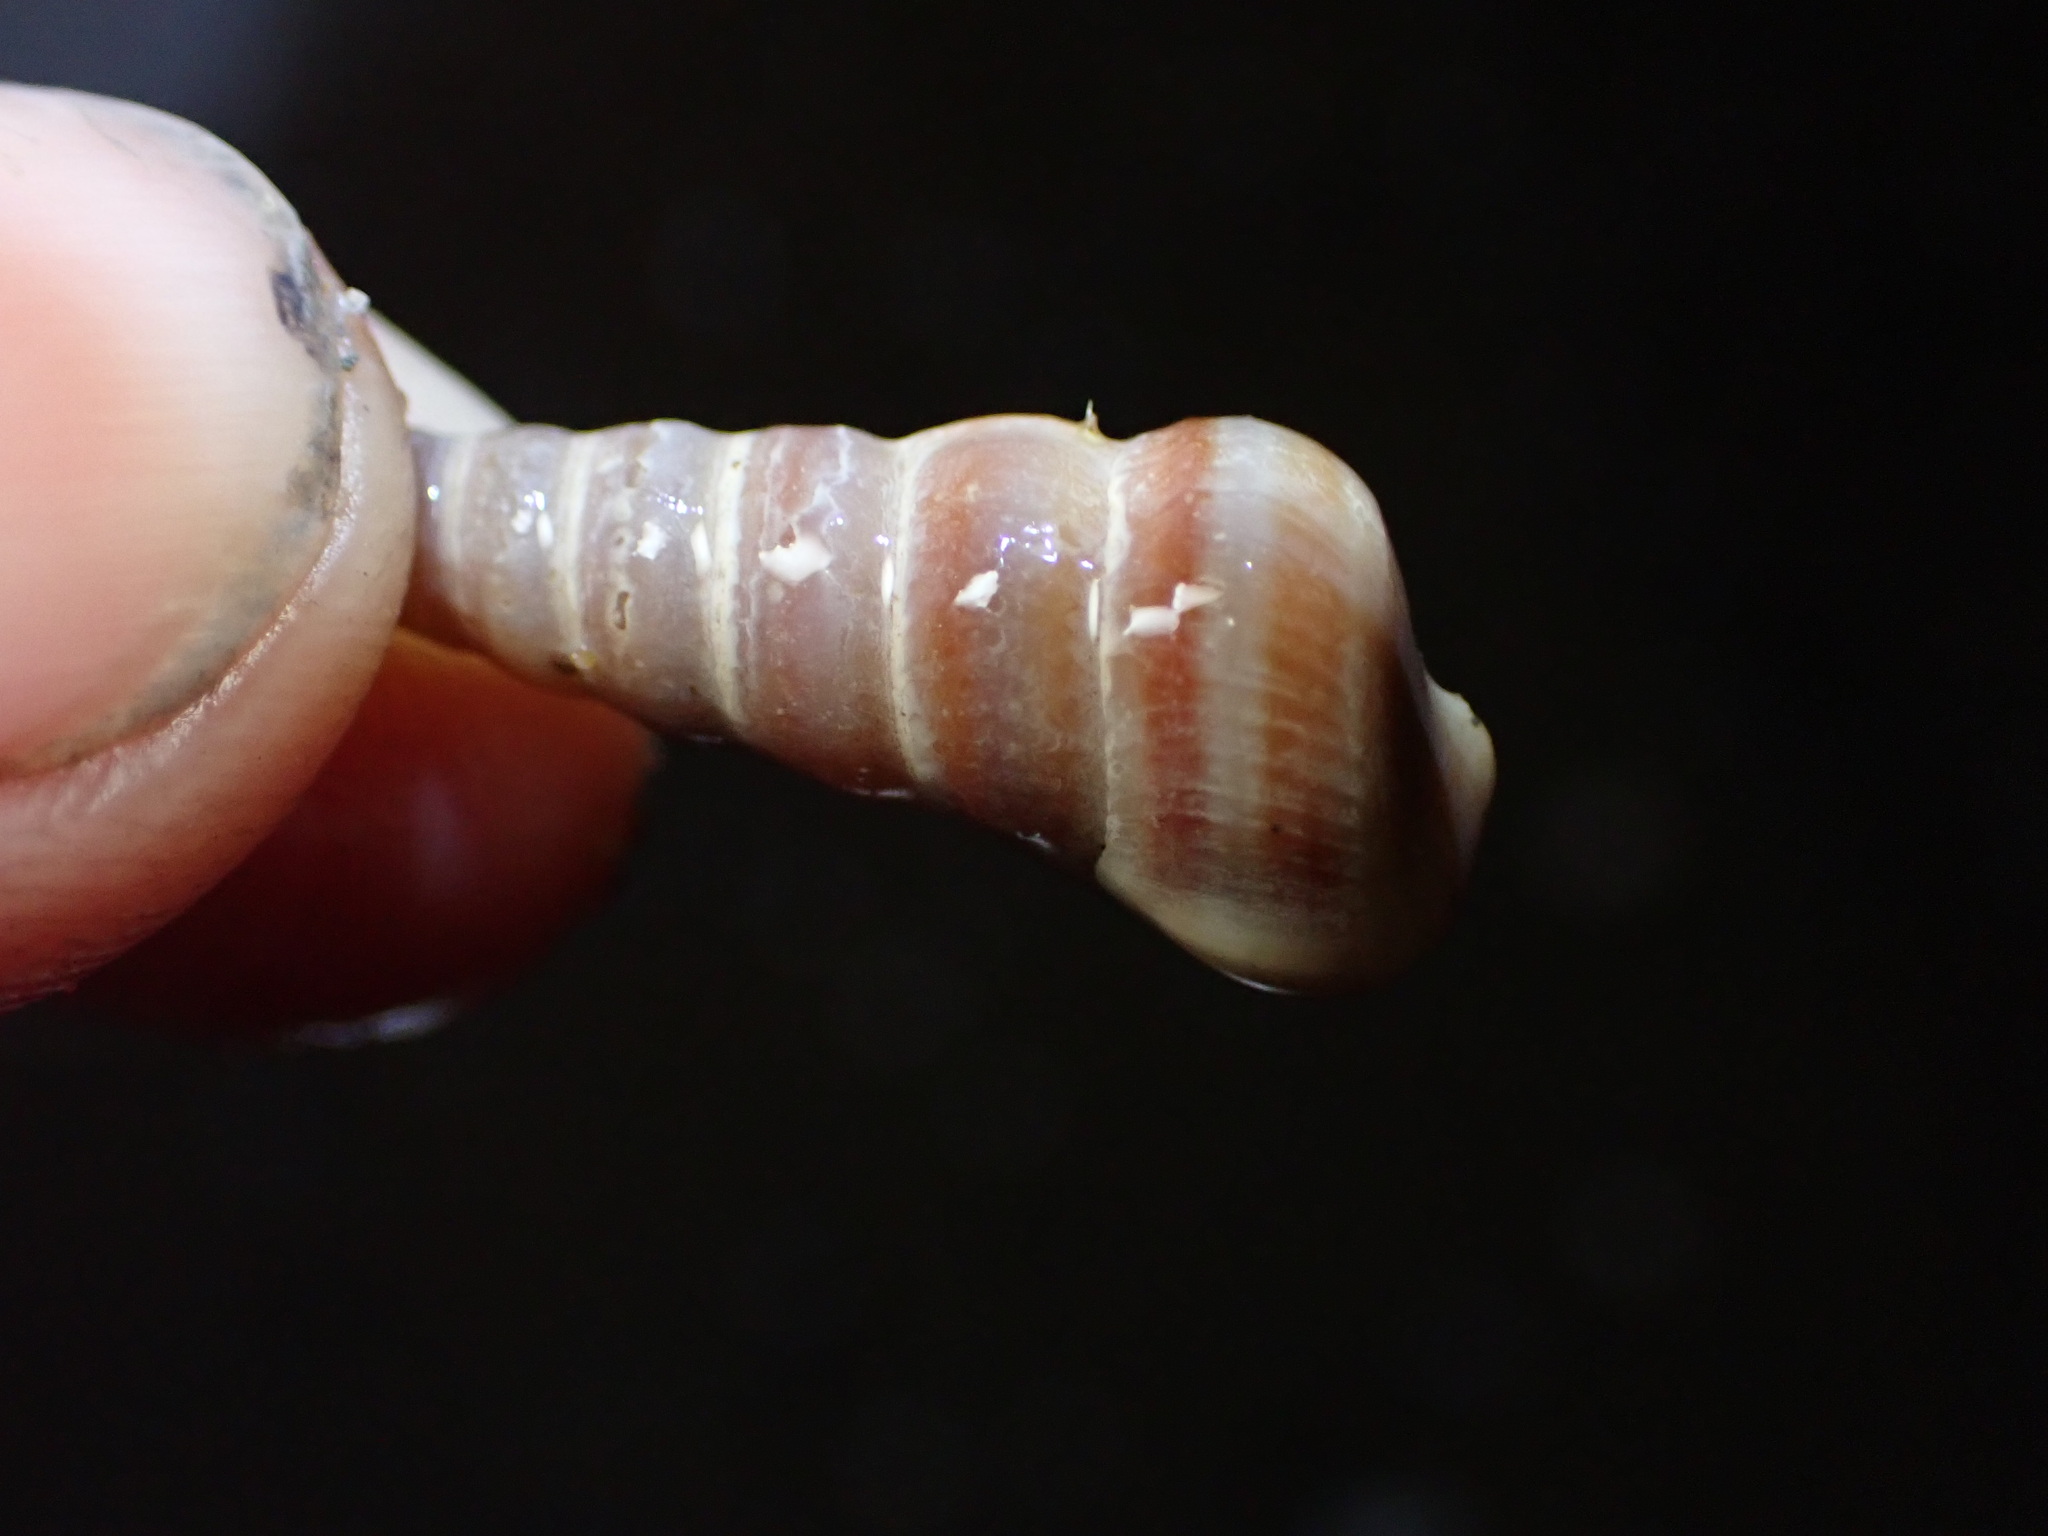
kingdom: Animalia
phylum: Mollusca
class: Gastropoda
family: Potamididae
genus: Cerithideopsis
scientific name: Cerithideopsis californica
